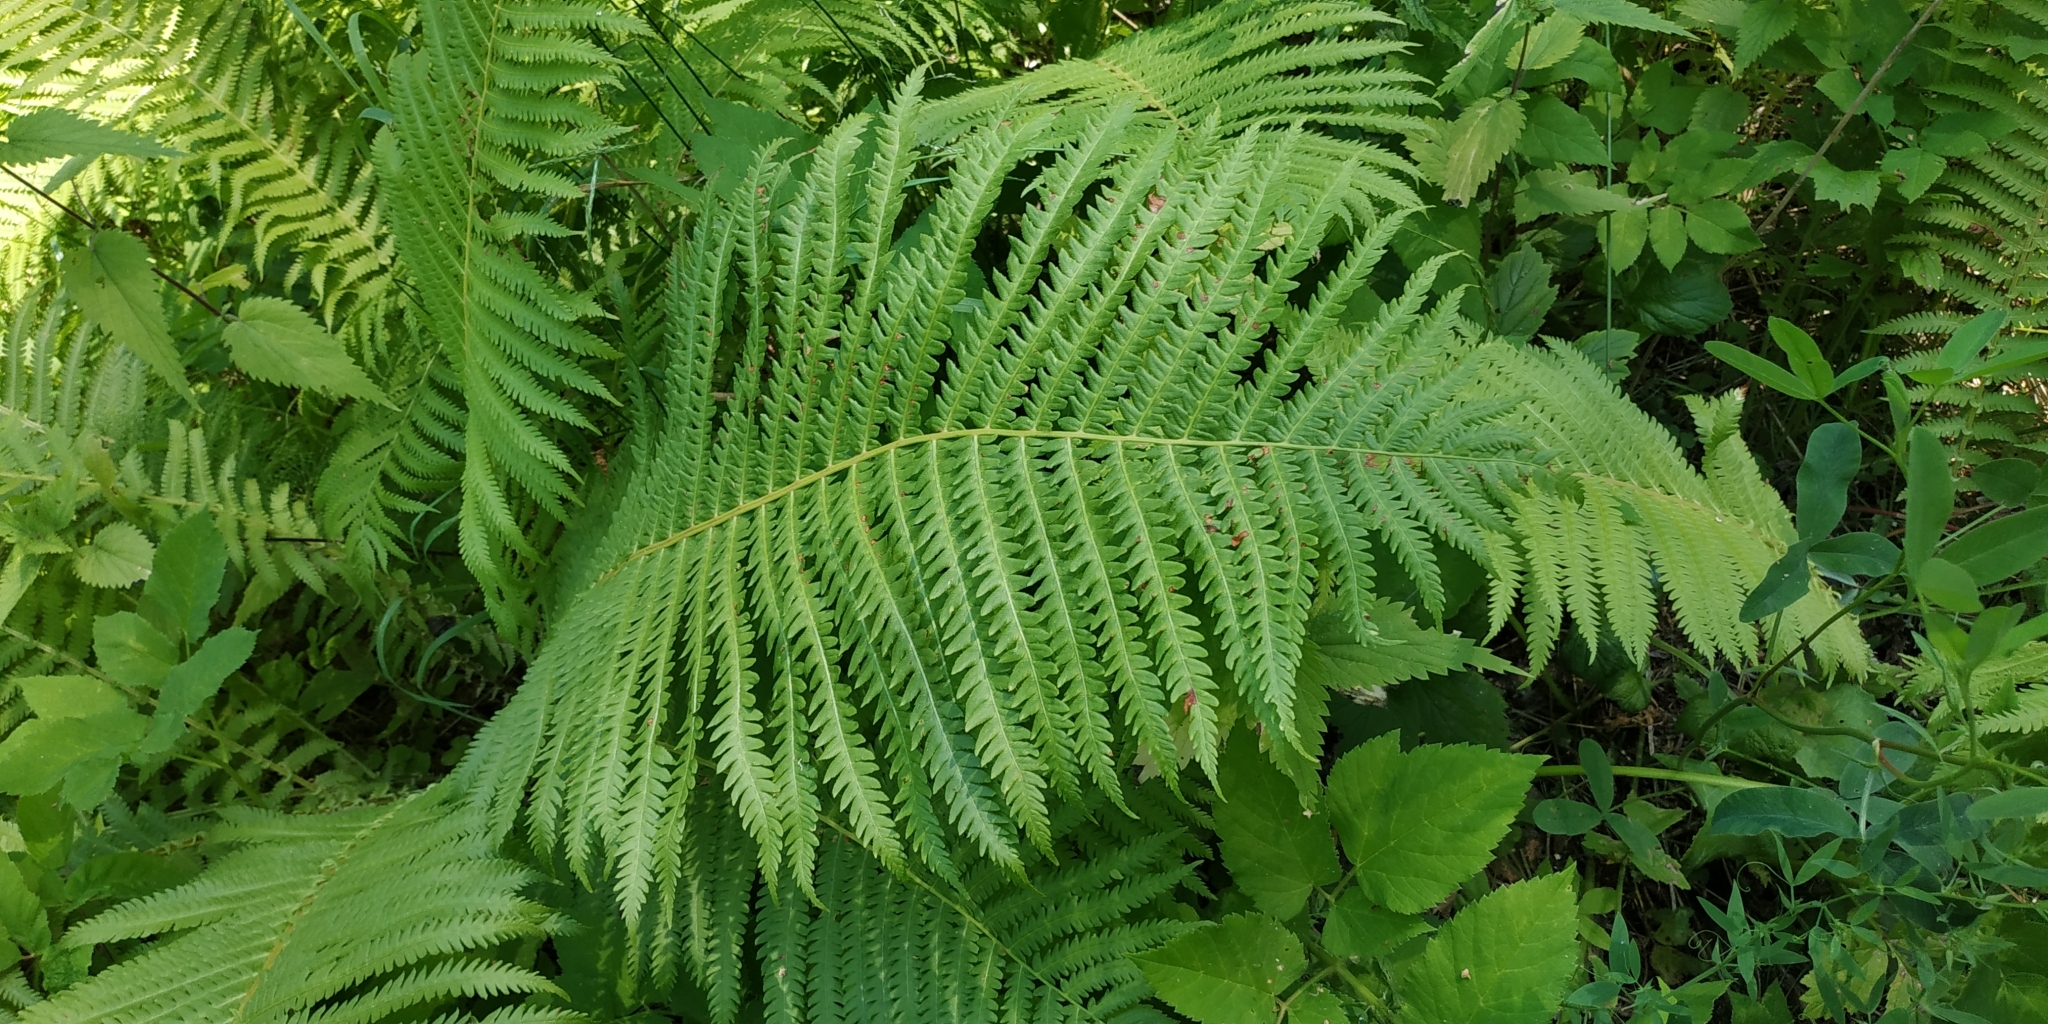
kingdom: Plantae
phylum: Tracheophyta
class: Polypodiopsida
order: Polypodiales
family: Onocleaceae
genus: Matteuccia
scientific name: Matteuccia struthiopteris
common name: Ostrich fern
